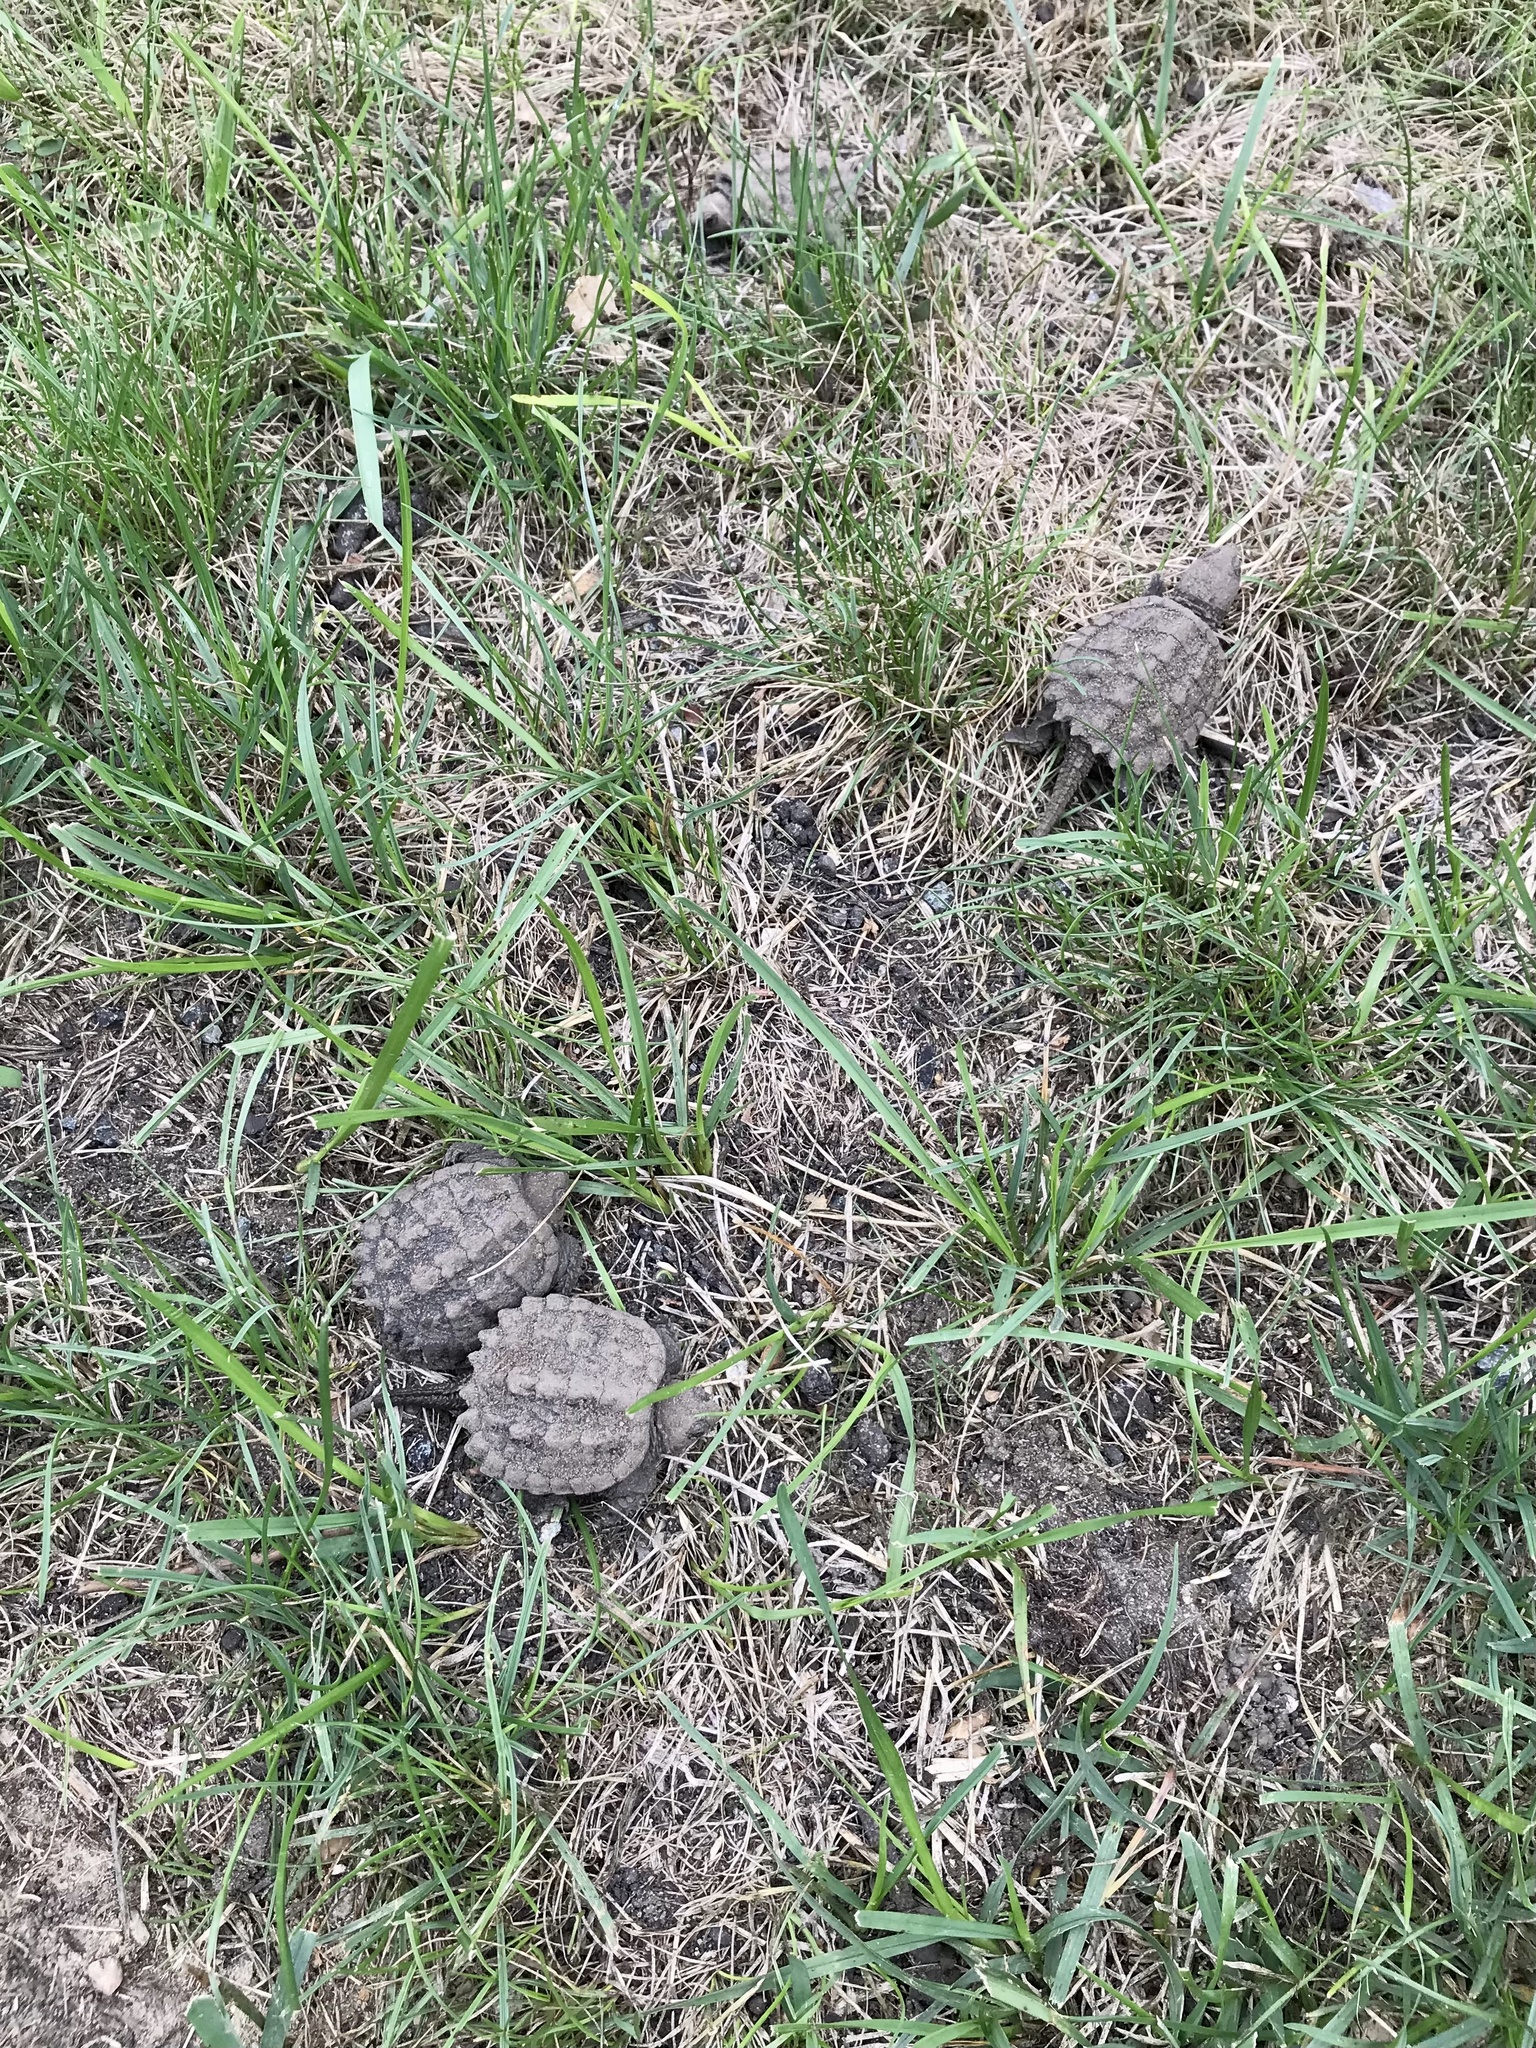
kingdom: Animalia
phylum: Chordata
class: Testudines
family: Chelydridae
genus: Chelydra
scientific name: Chelydra serpentina
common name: Common snapping turtle
